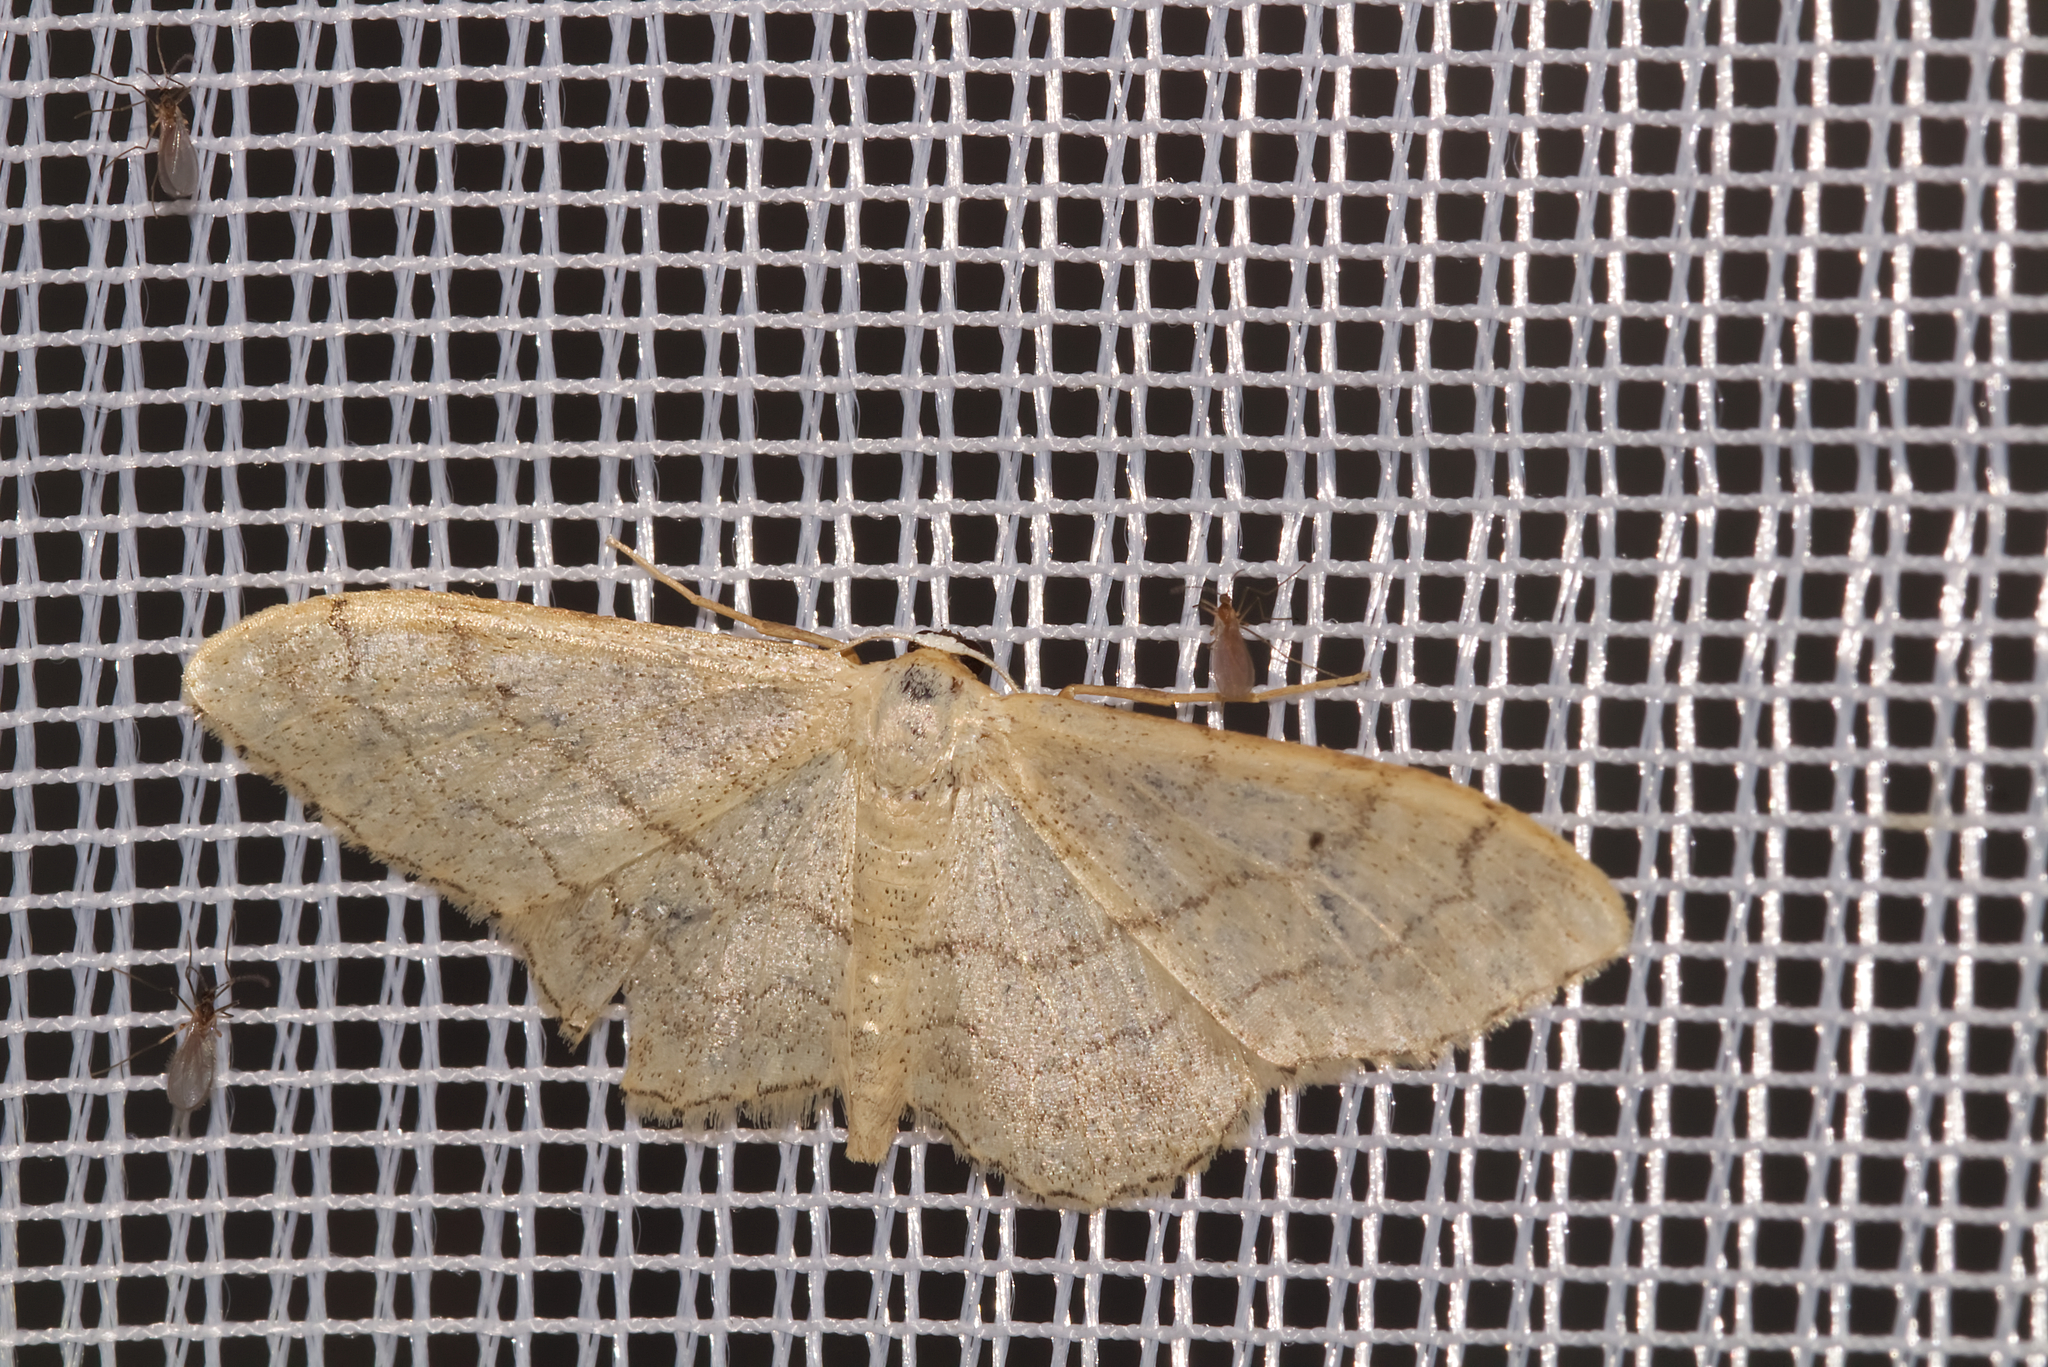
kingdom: Animalia
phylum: Arthropoda
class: Insecta
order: Lepidoptera
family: Geometridae
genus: Idaea
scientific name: Idaea aversata
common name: Riband wave
